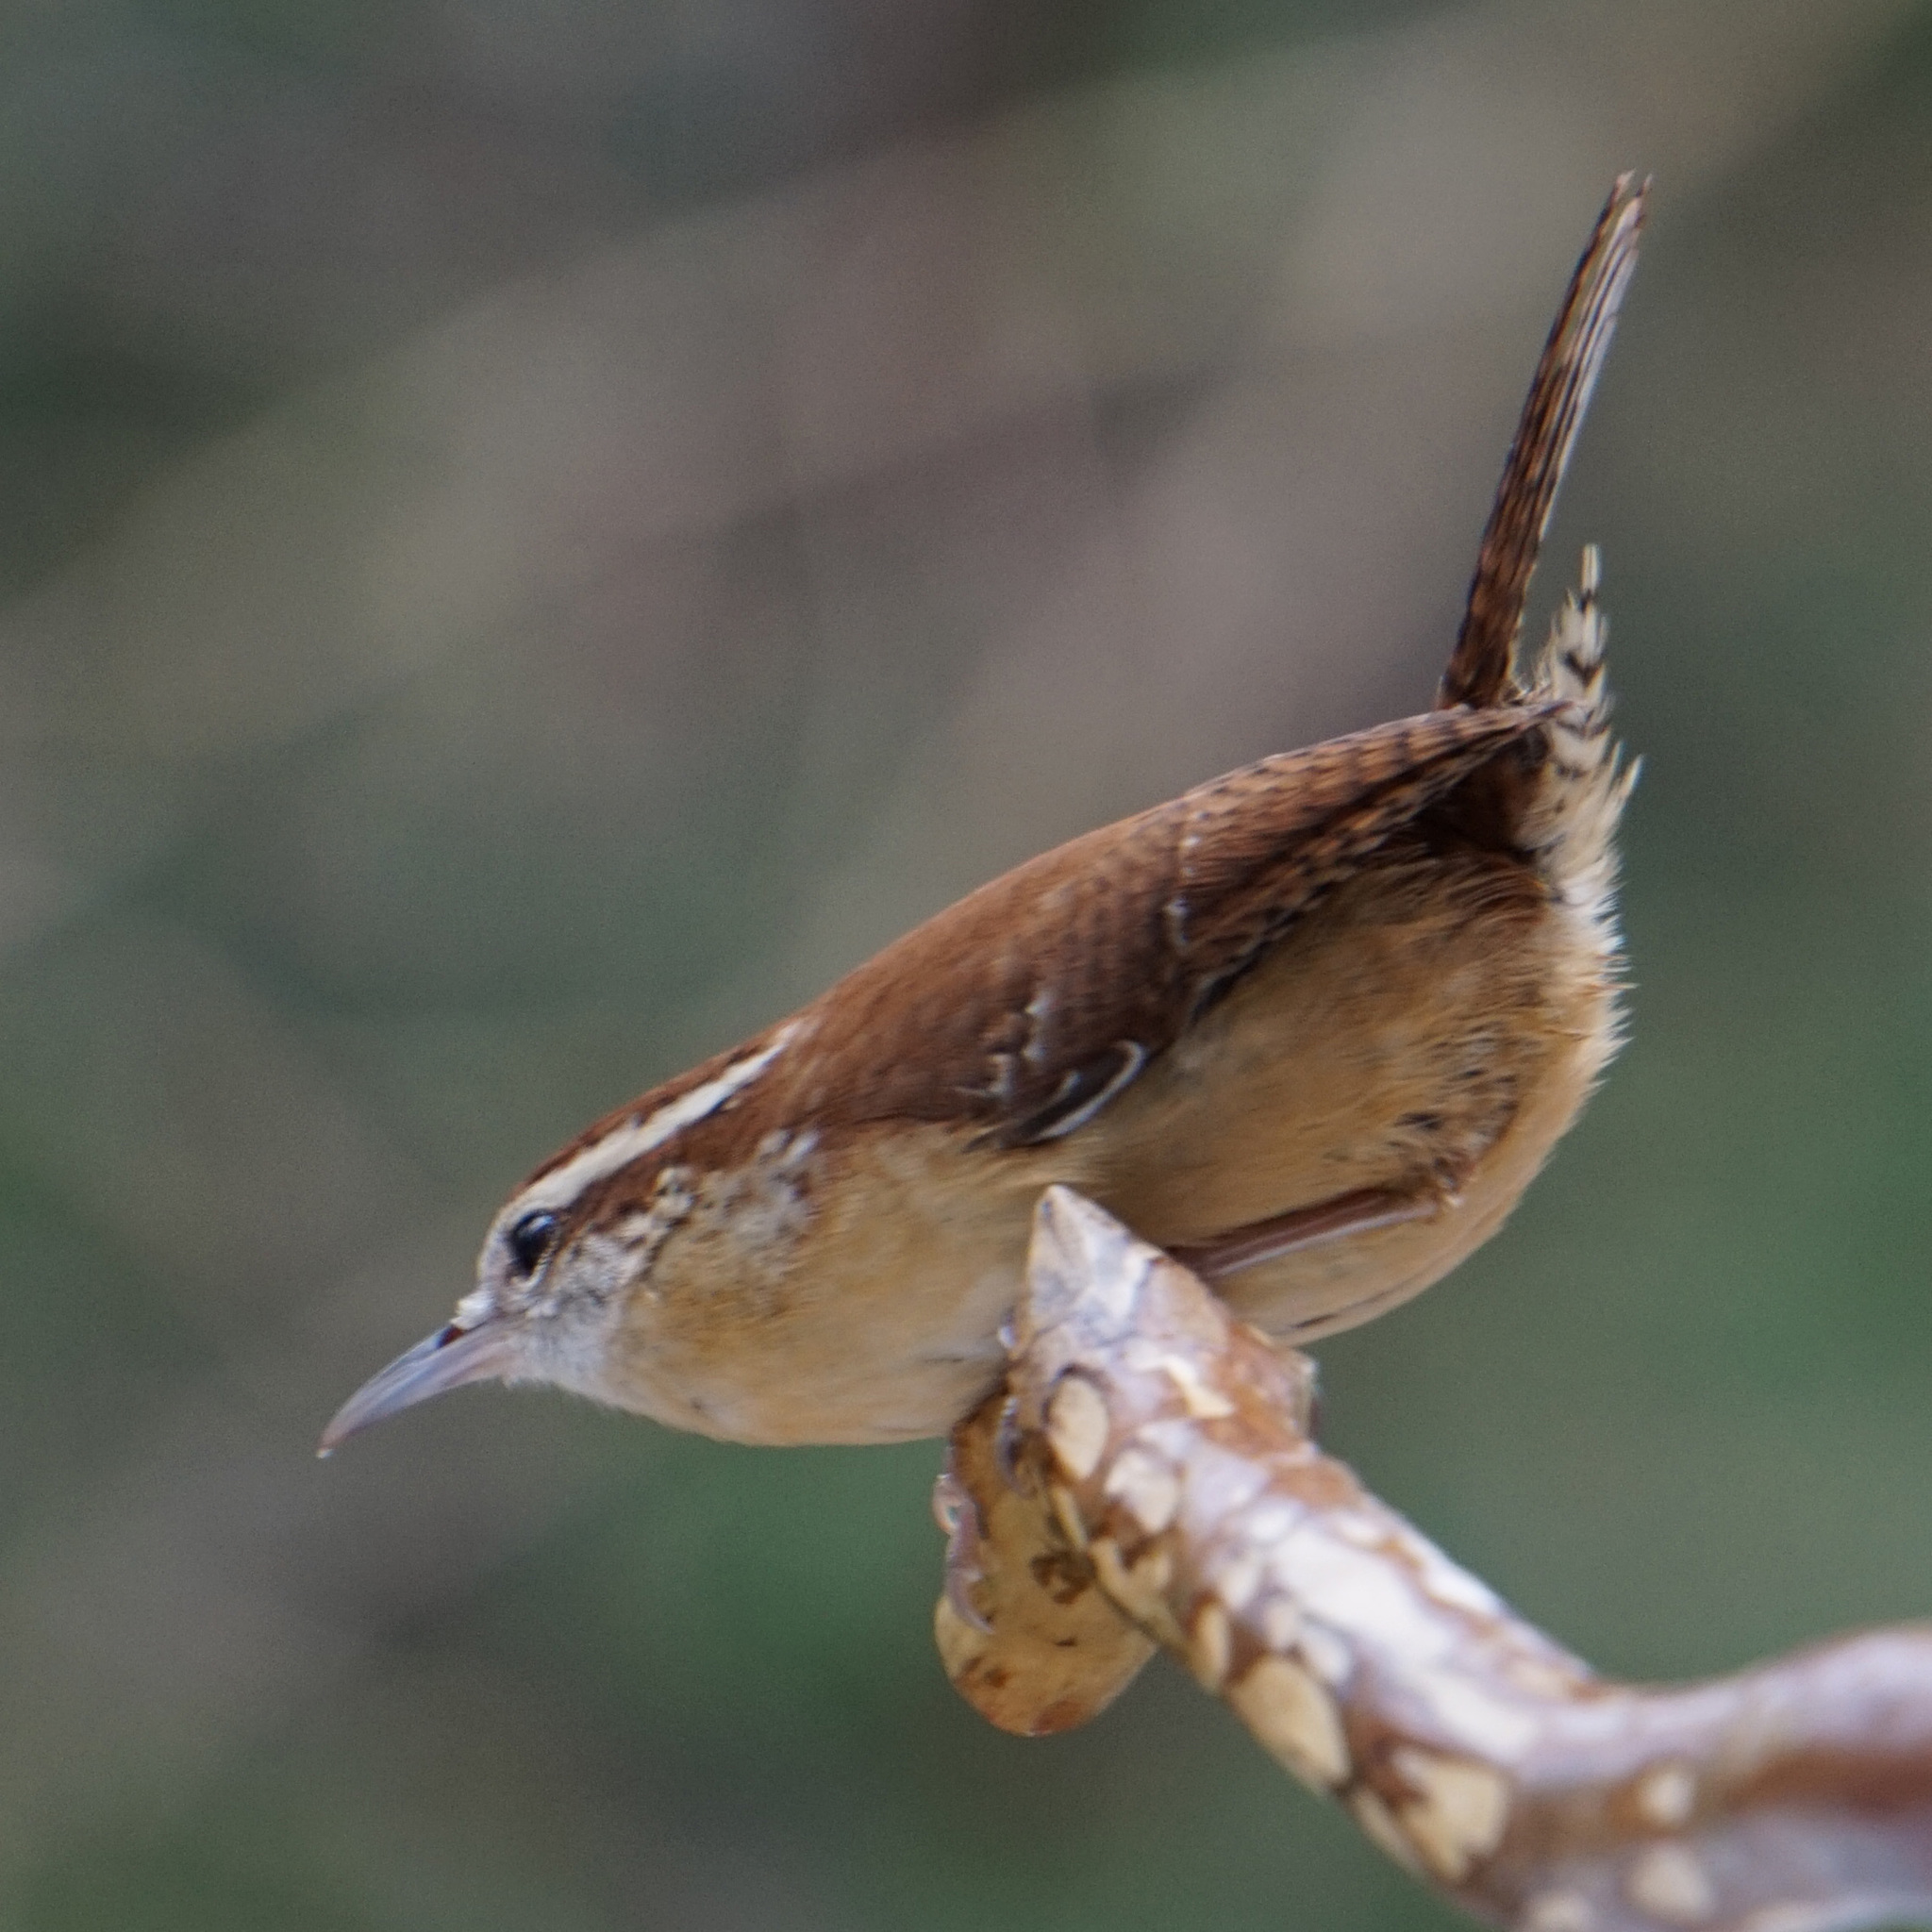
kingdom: Animalia
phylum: Chordata
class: Aves
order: Passeriformes
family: Troglodytidae
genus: Thryothorus
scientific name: Thryothorus ludovicianus
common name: Carolina wren
